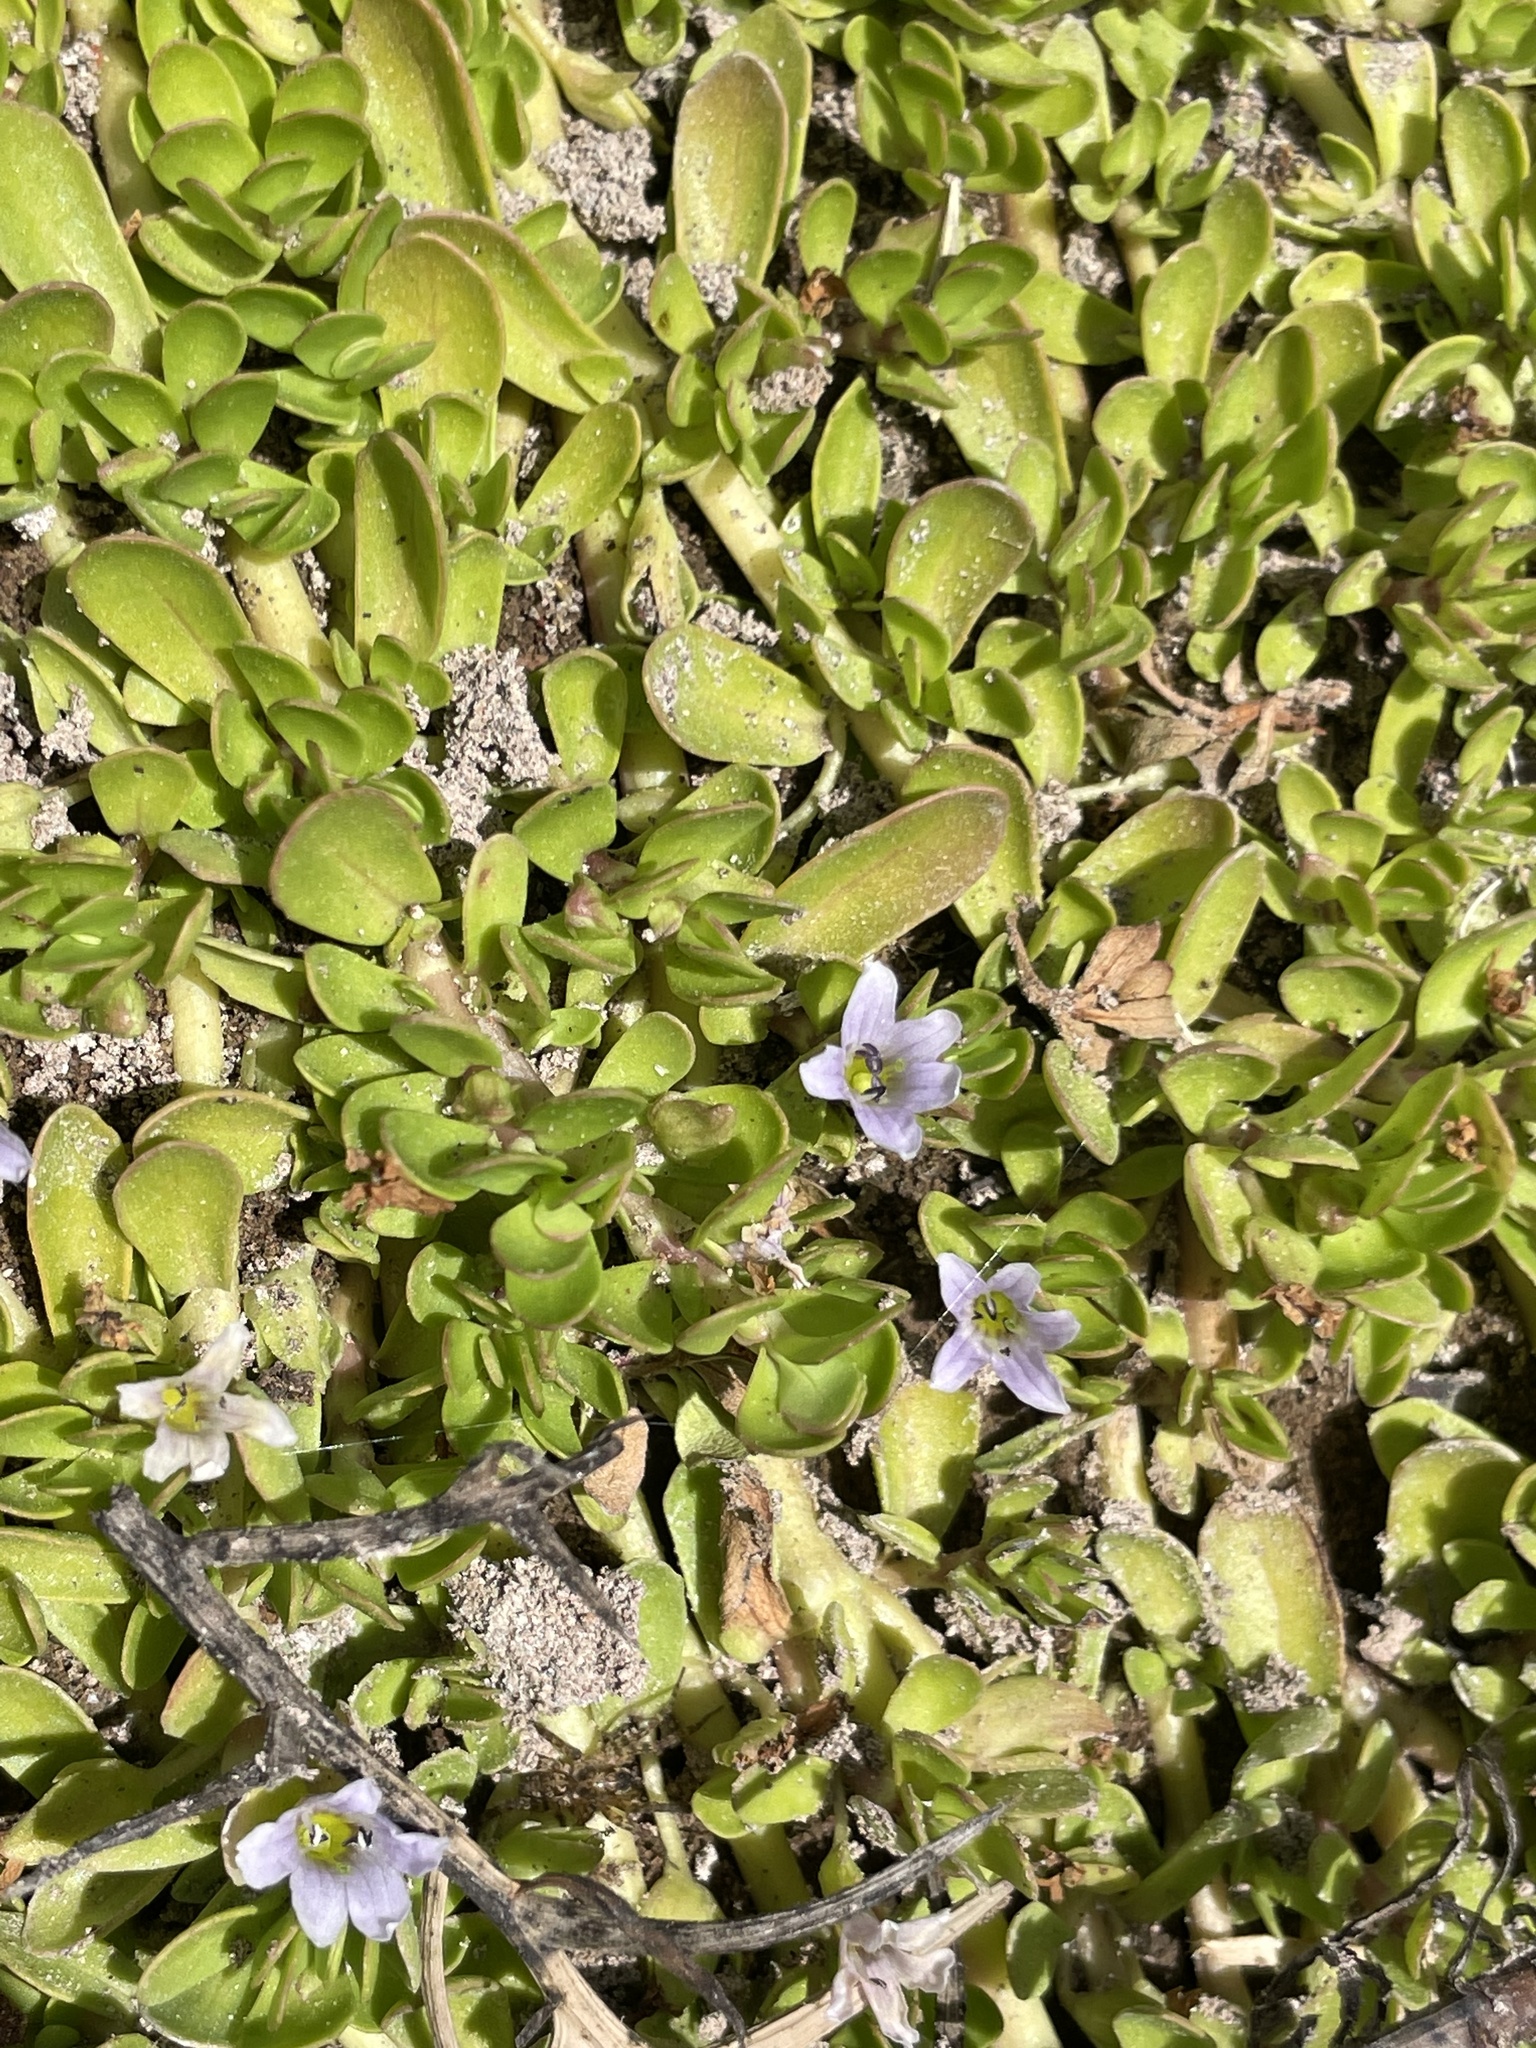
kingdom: Plantae
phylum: Tracheophyta
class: Magnoliopsida
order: Lamiales
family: Plantaginaceae
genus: Bacopa
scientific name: Bacopa monnieri
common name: Indian-pennywort
